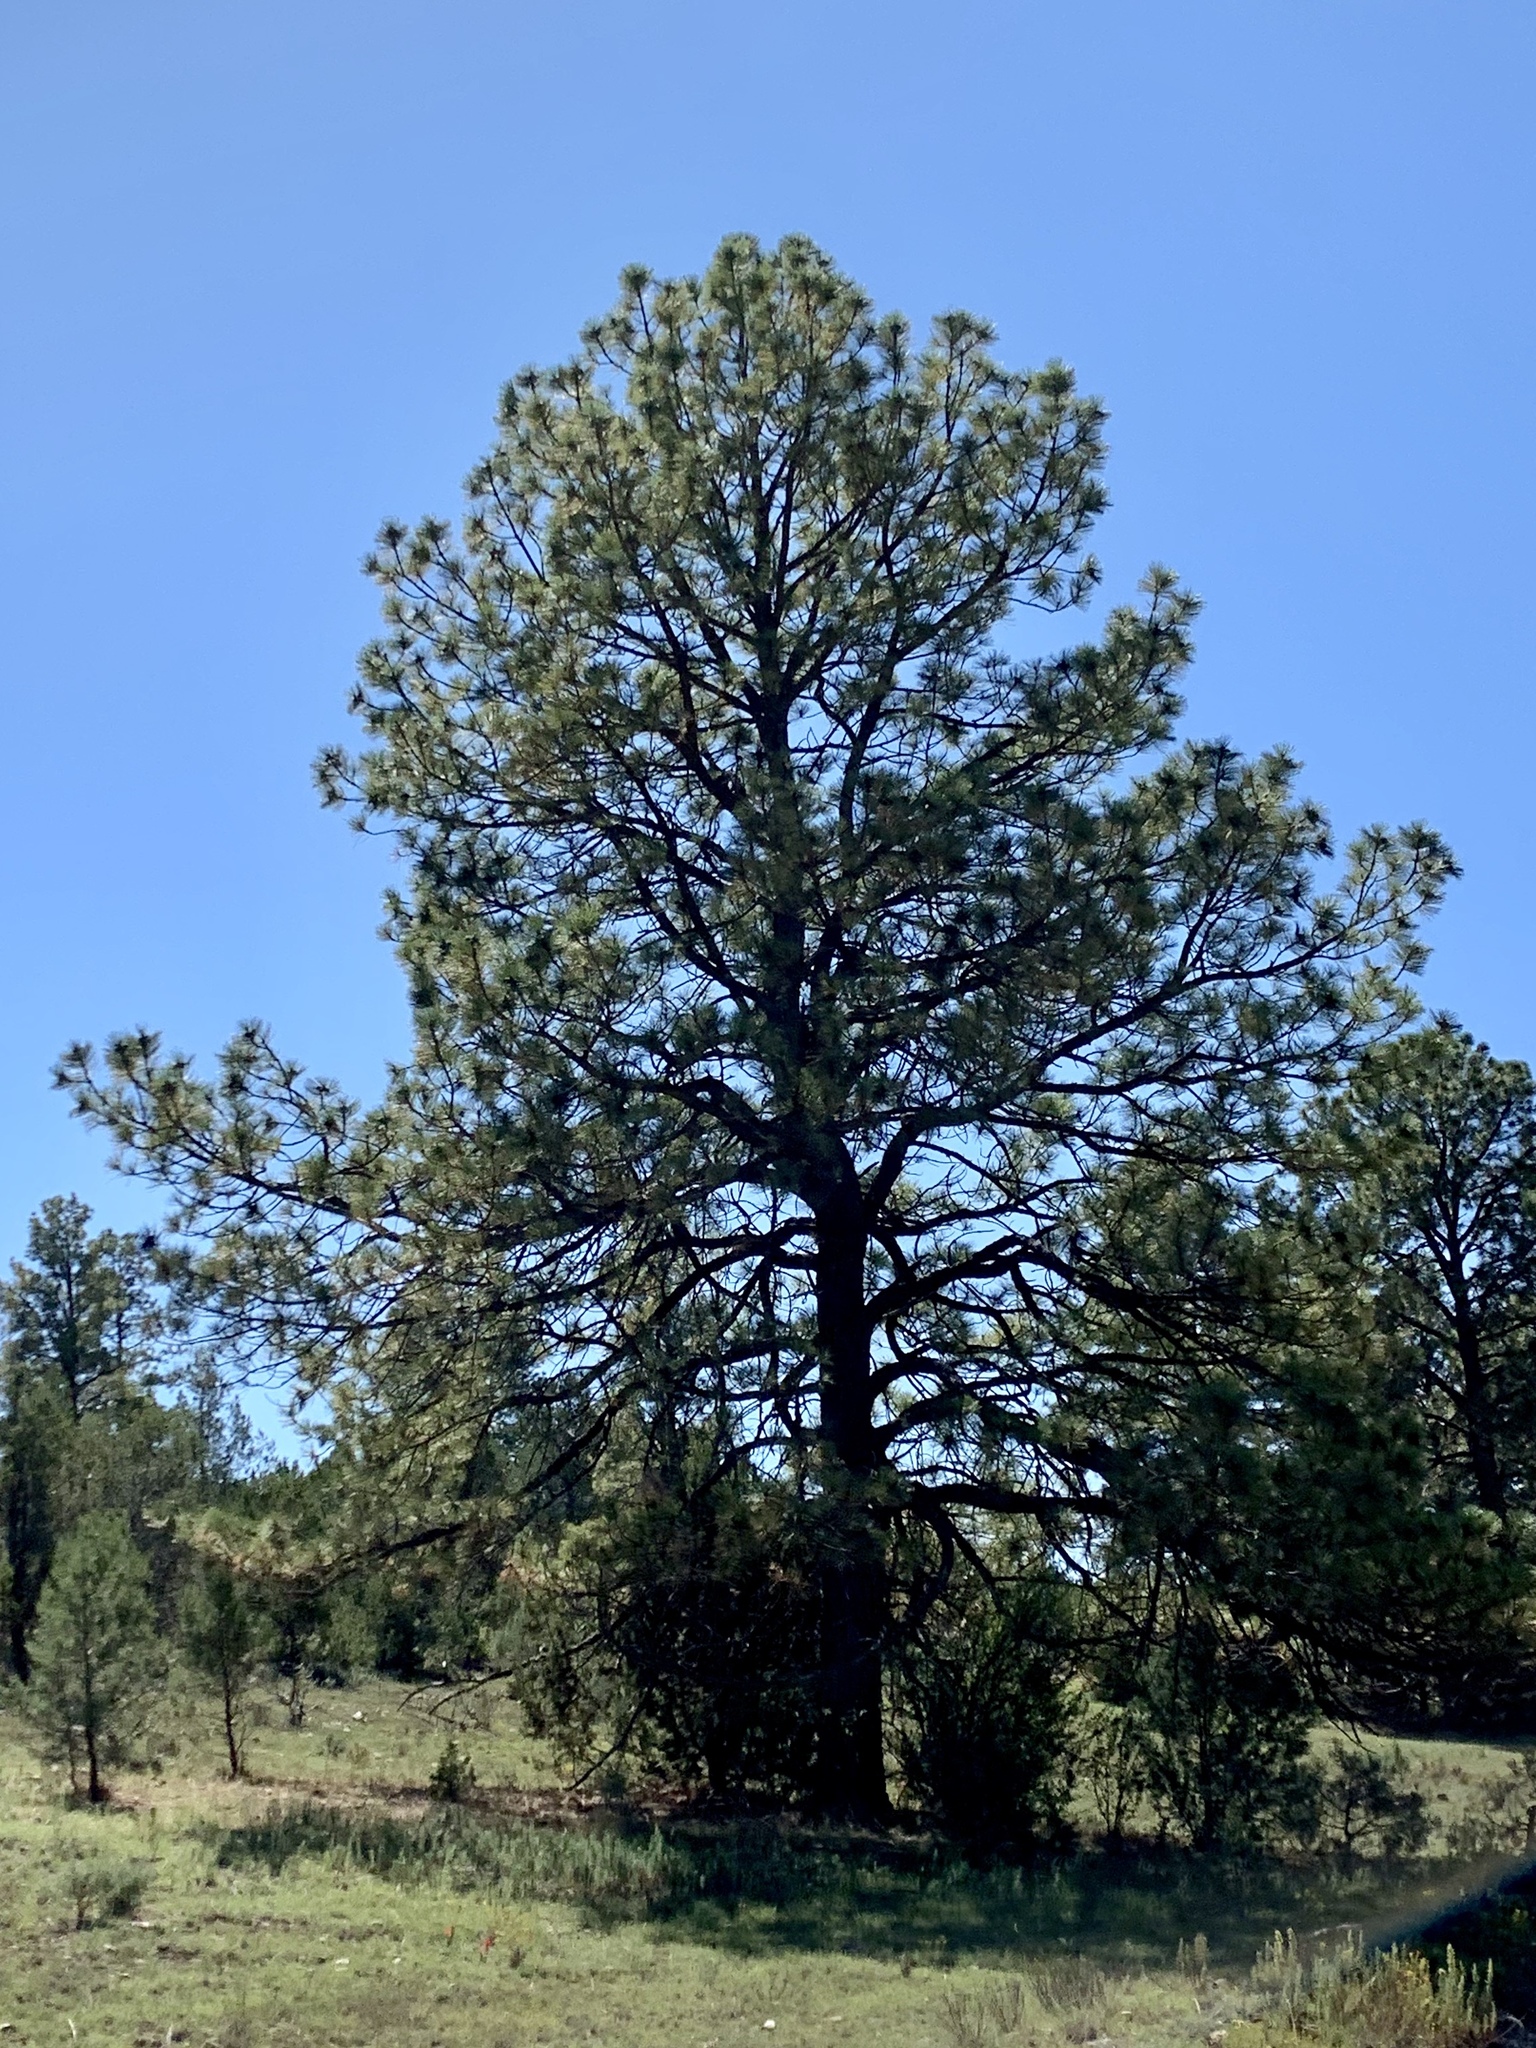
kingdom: Plantae
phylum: Tracheophyta
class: Pinopsida
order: Pinales
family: Pinaceae
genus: Pinus
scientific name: Pinus ponderosa
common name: Western yellow-pine
